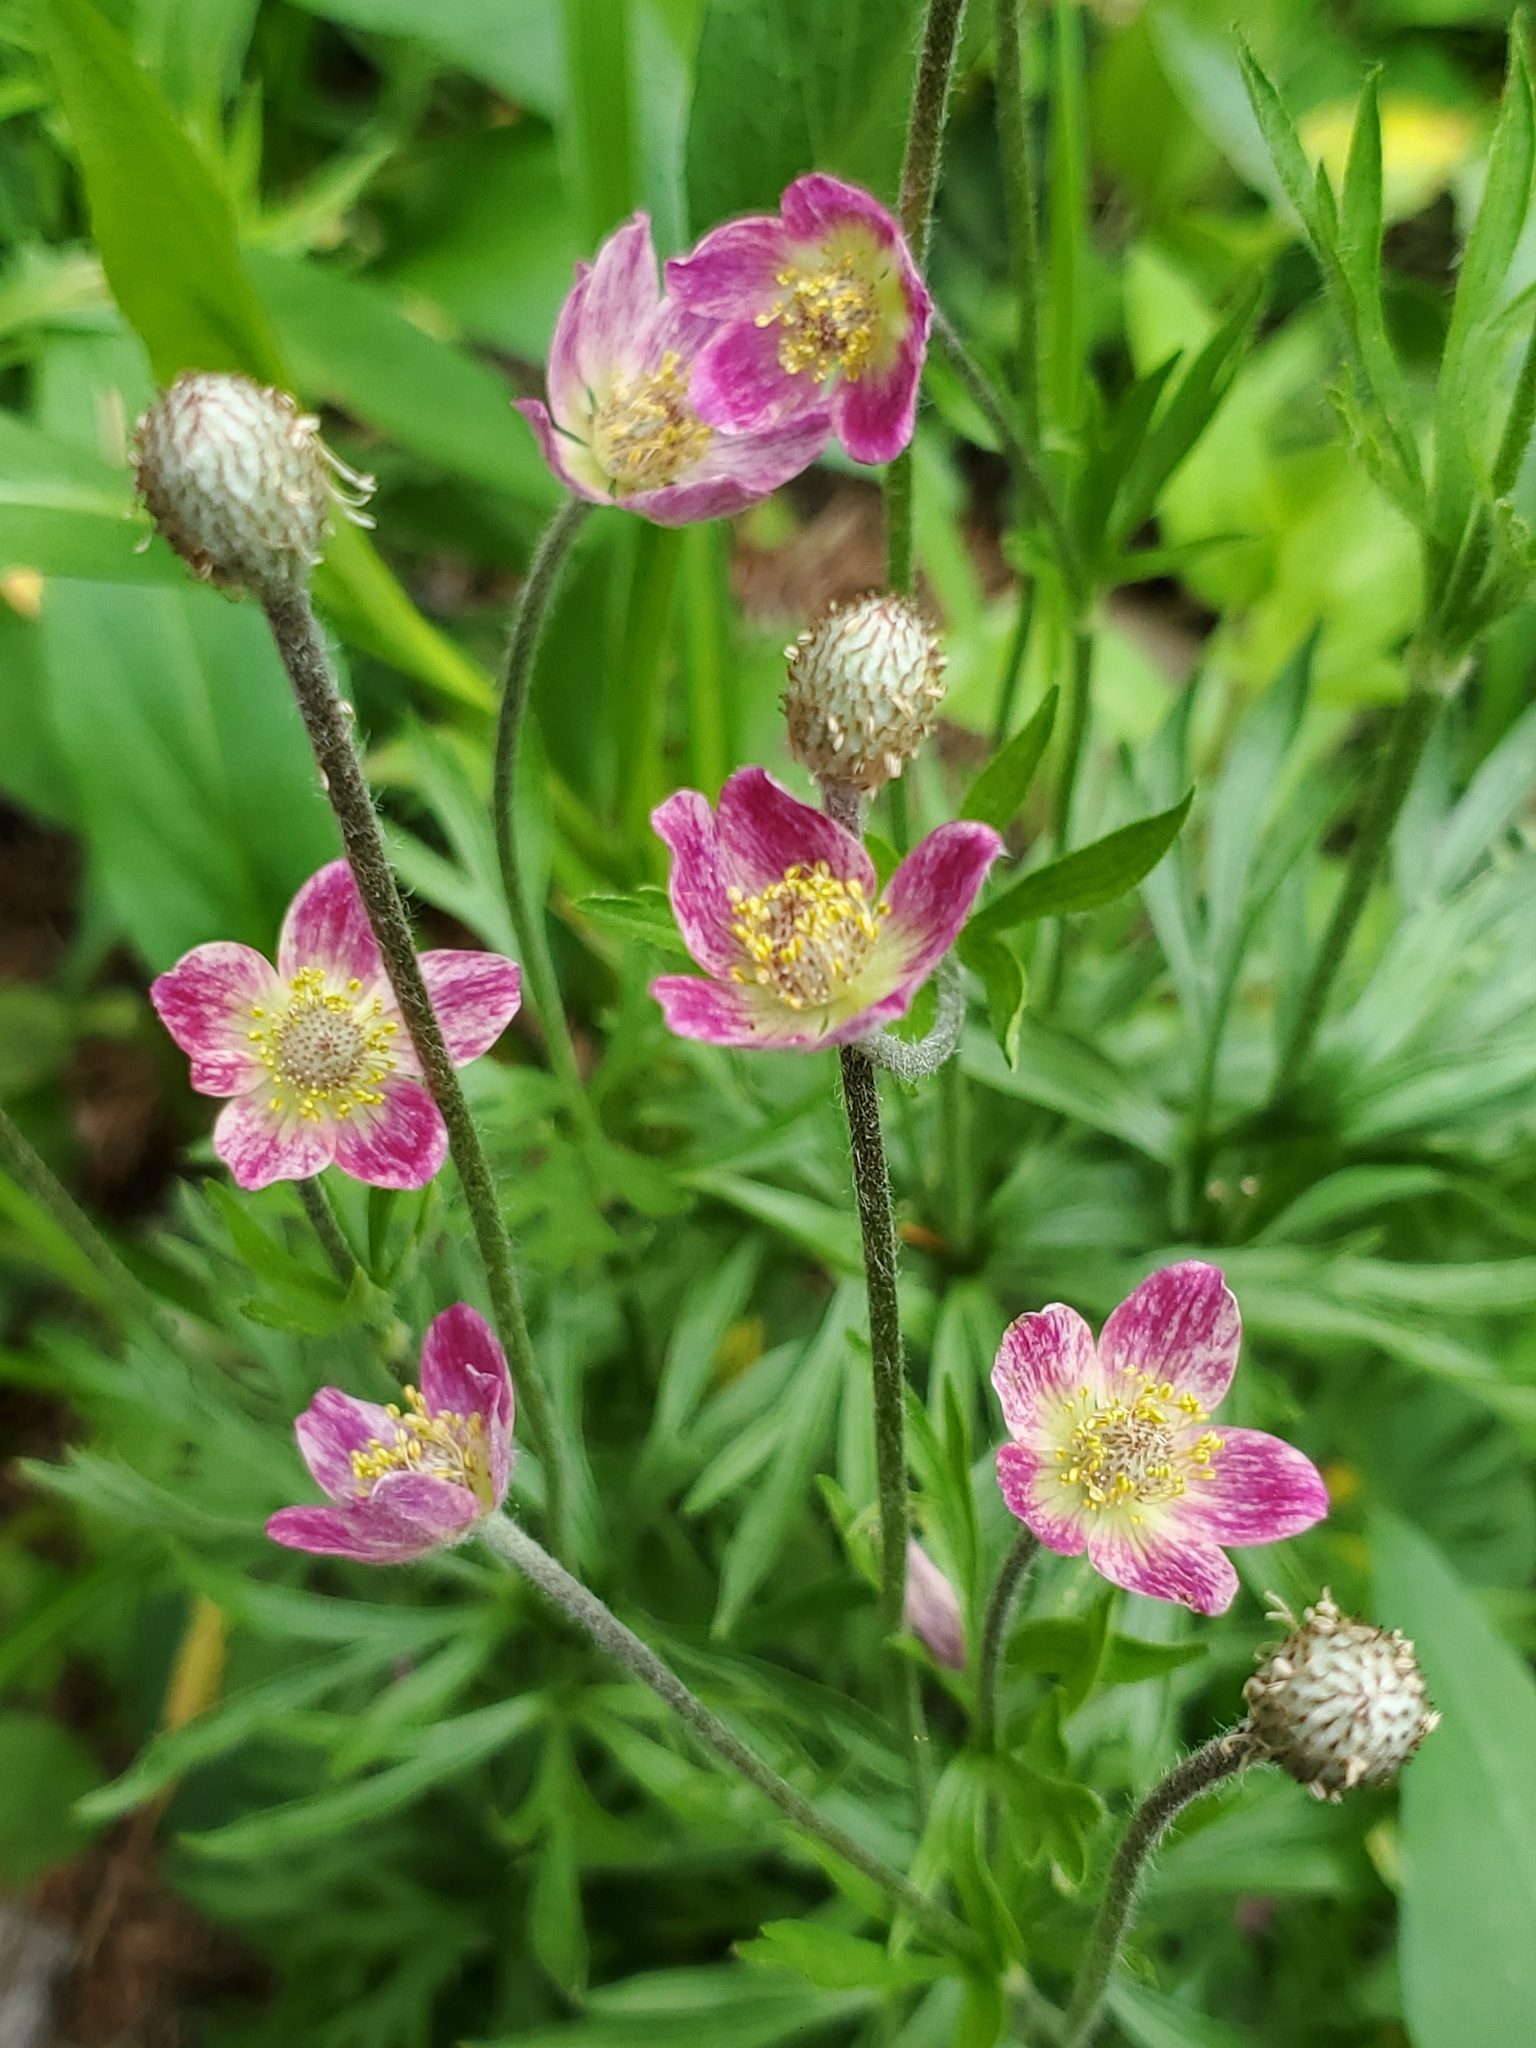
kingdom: Plantae
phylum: Tracheophyta
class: Magnoliopsida
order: Ranunculales
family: Ranunculaceae
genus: Anemone
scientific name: Anemone multifida
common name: Bird's-foot anemone
